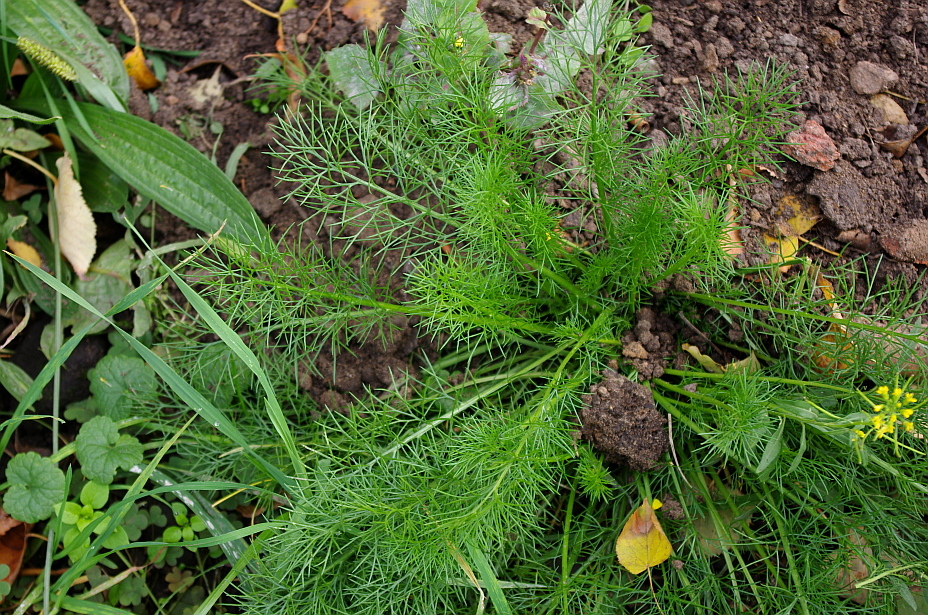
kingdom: Plantae
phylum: Tracheophyta
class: Magnoliopsida
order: Asterales
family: Asteraceae
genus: Tripleurospermum
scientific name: Tripleurospermum inodorum
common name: Scentless mayweed
